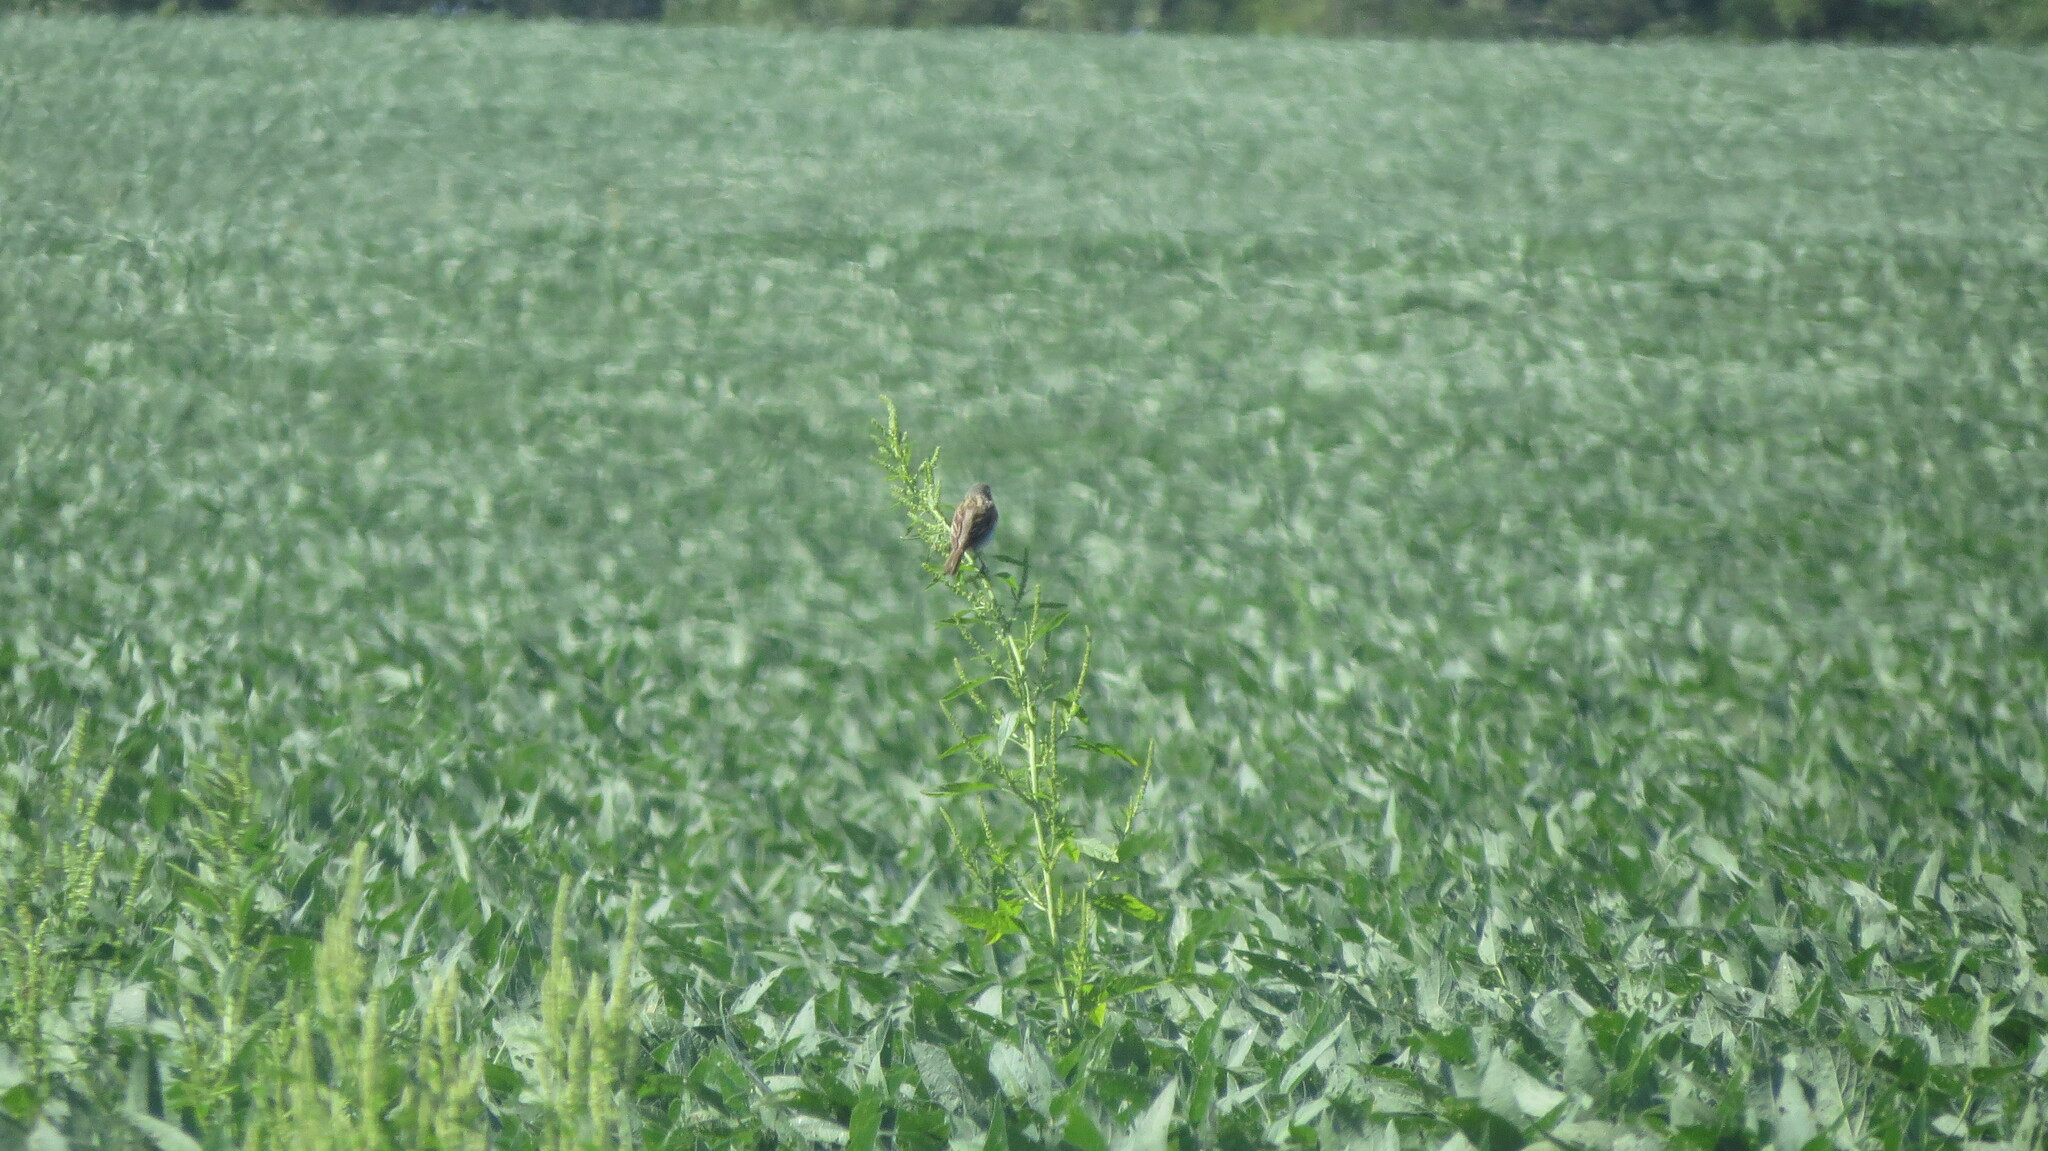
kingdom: Animalia
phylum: Chordata
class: Aves
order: Passeriformes
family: Cardinalidae
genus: Spiza
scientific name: Spiza americana
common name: Dickcissel
